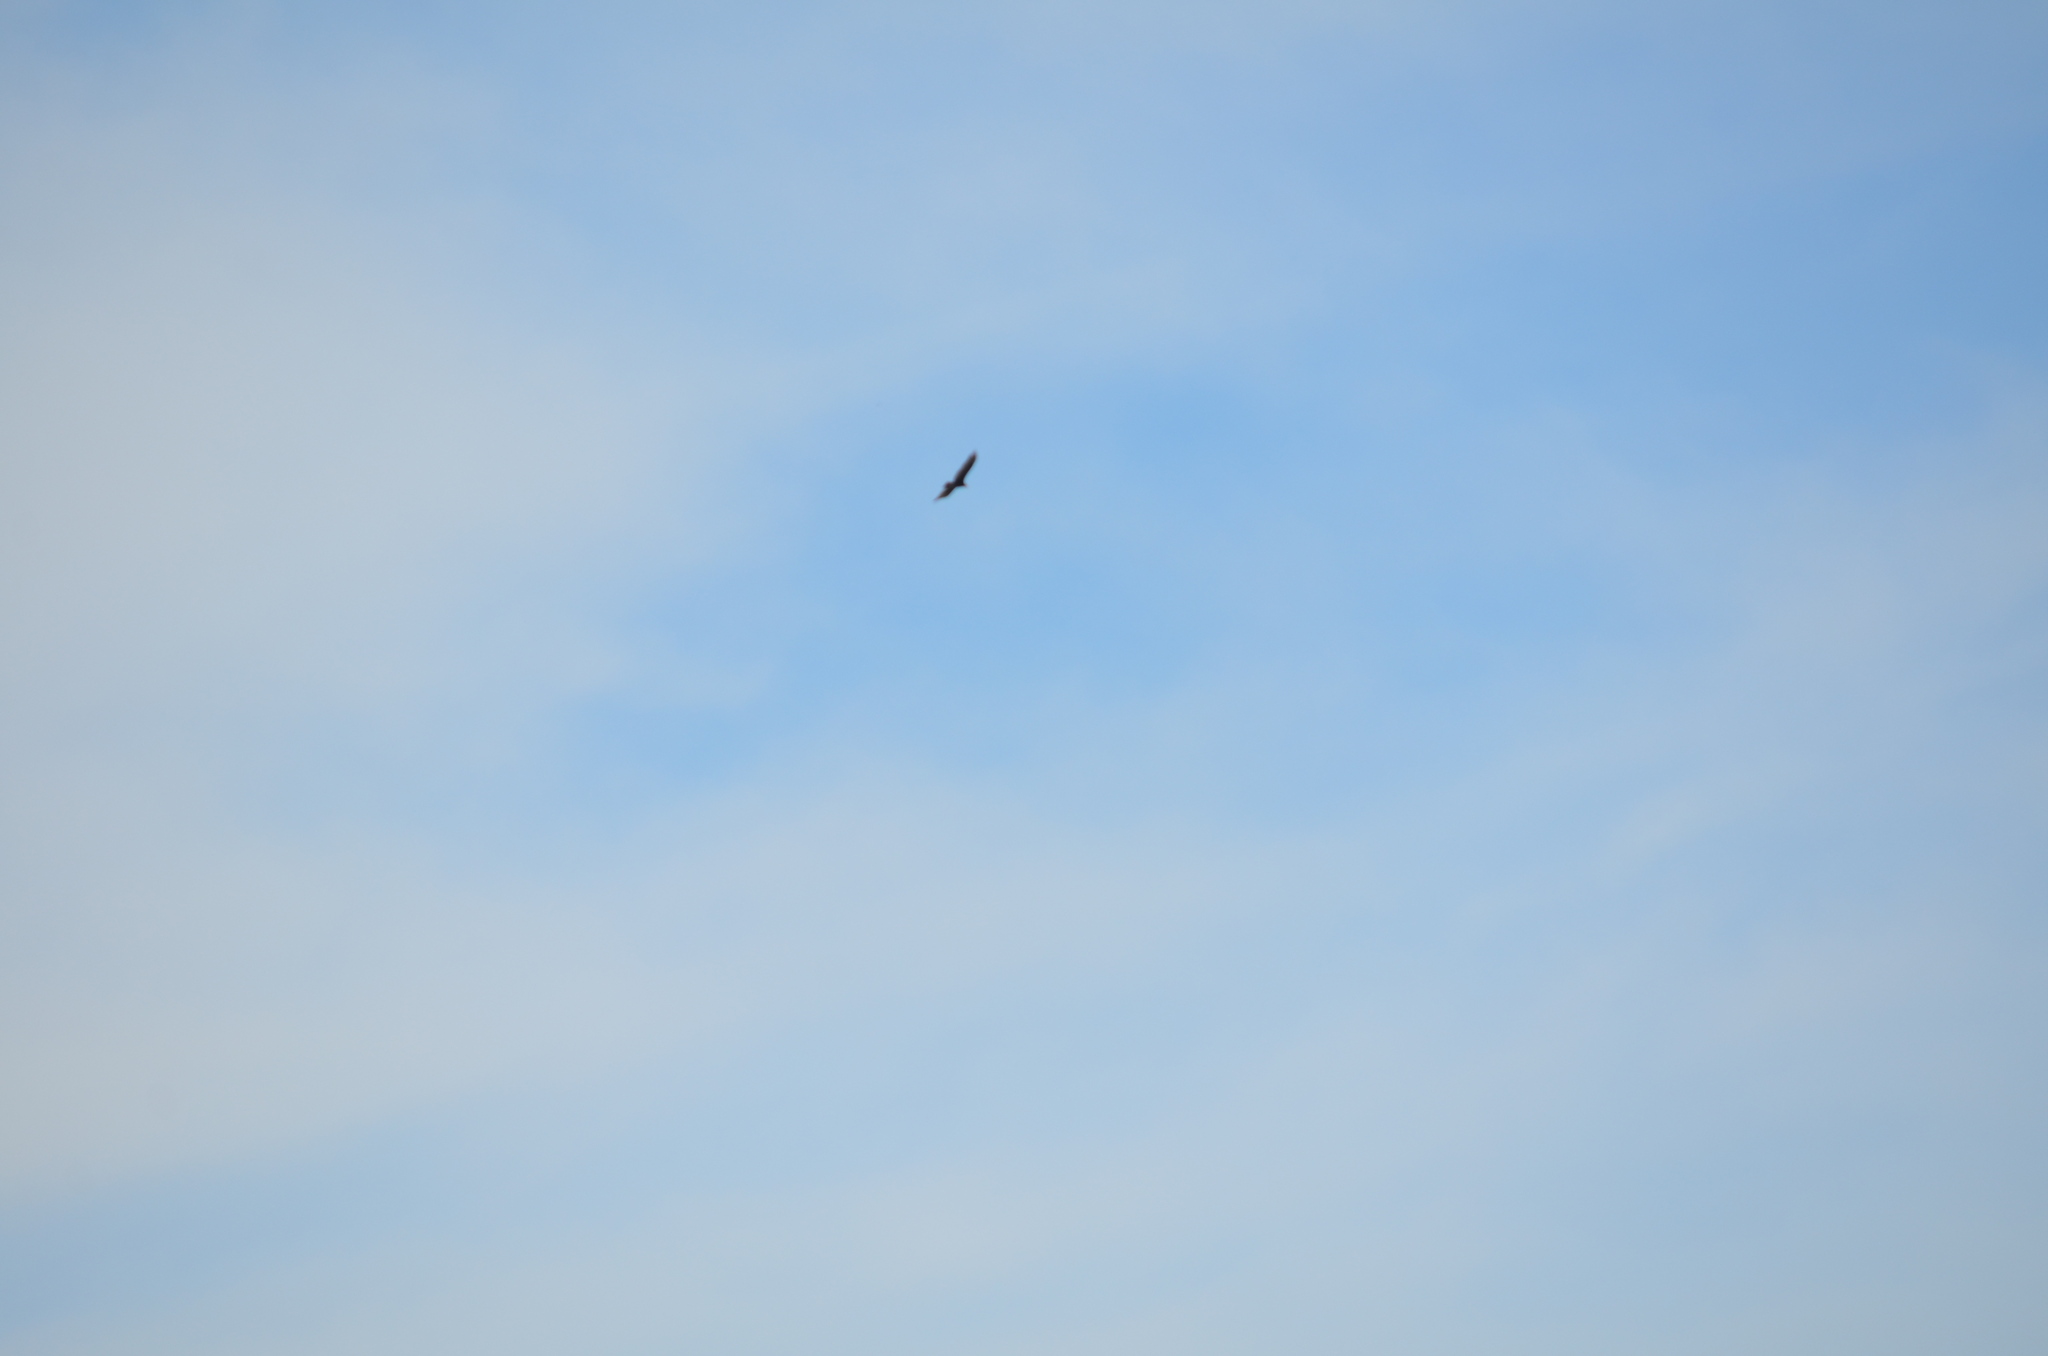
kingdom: Animalia
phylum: Chordata
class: Aves
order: Accipitriformes
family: Cathartidae
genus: Cathartes
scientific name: Cathartes aura
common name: Turkey vulture
